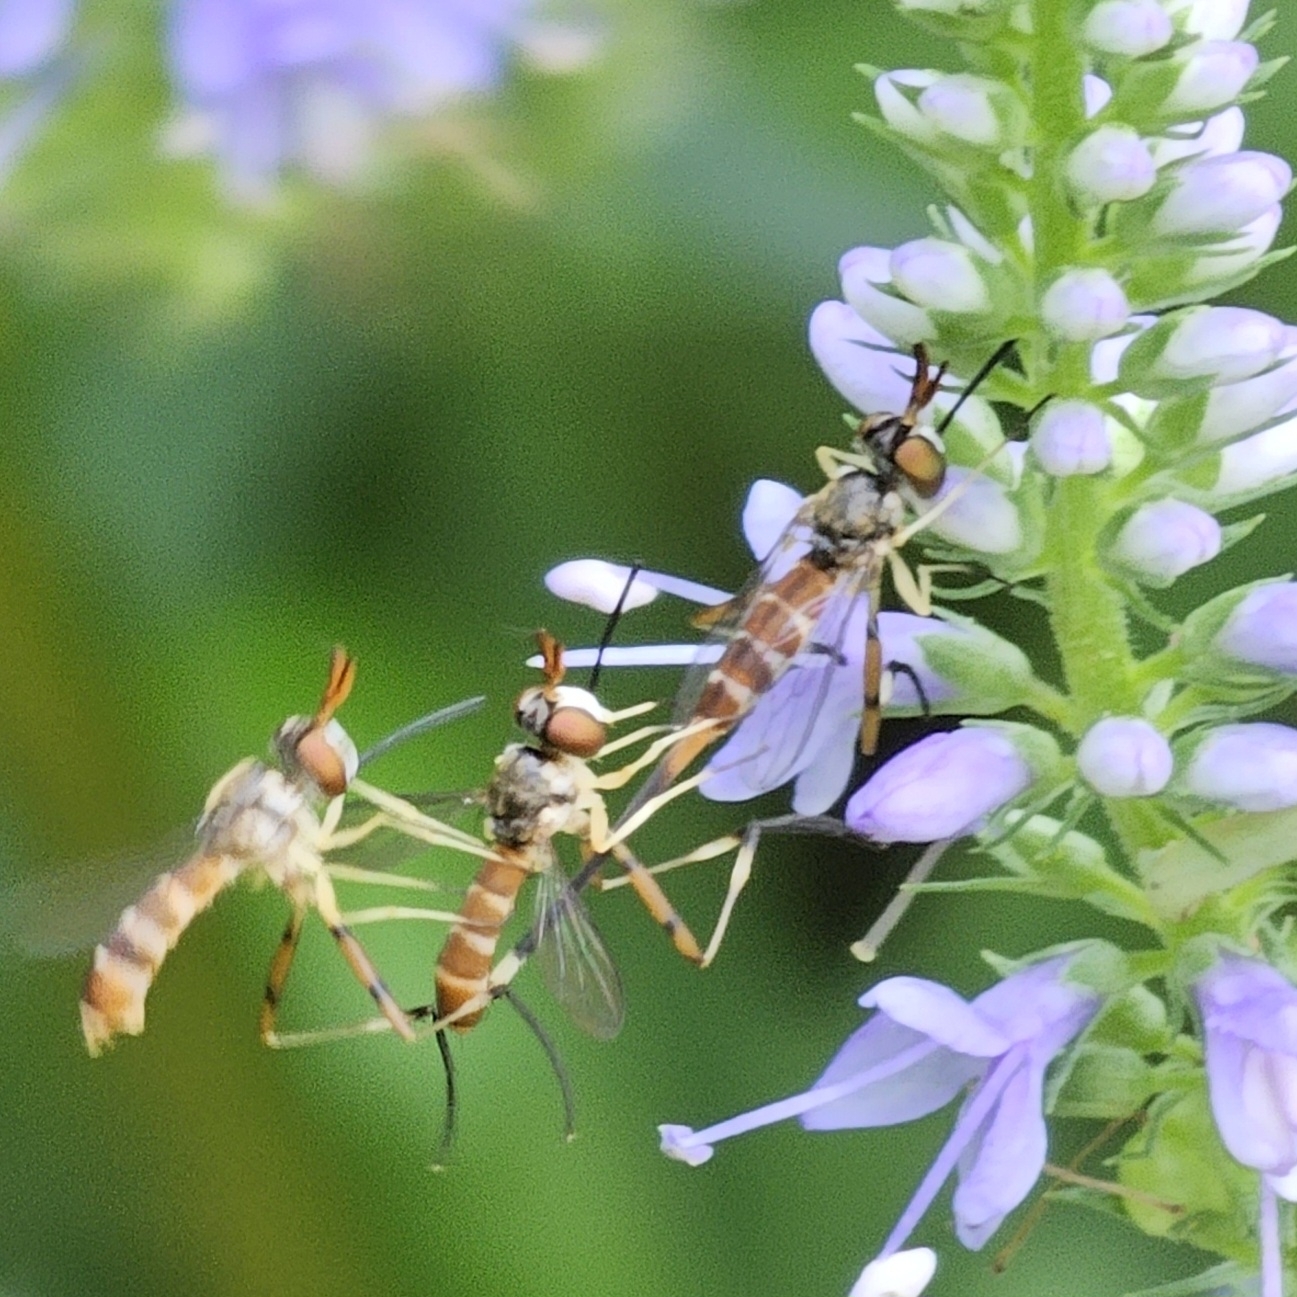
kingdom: Animalia
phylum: Arthropoda
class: Insecta
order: Diptera
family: Conopidae
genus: Stylogaster
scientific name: Stylogaster neglecta
